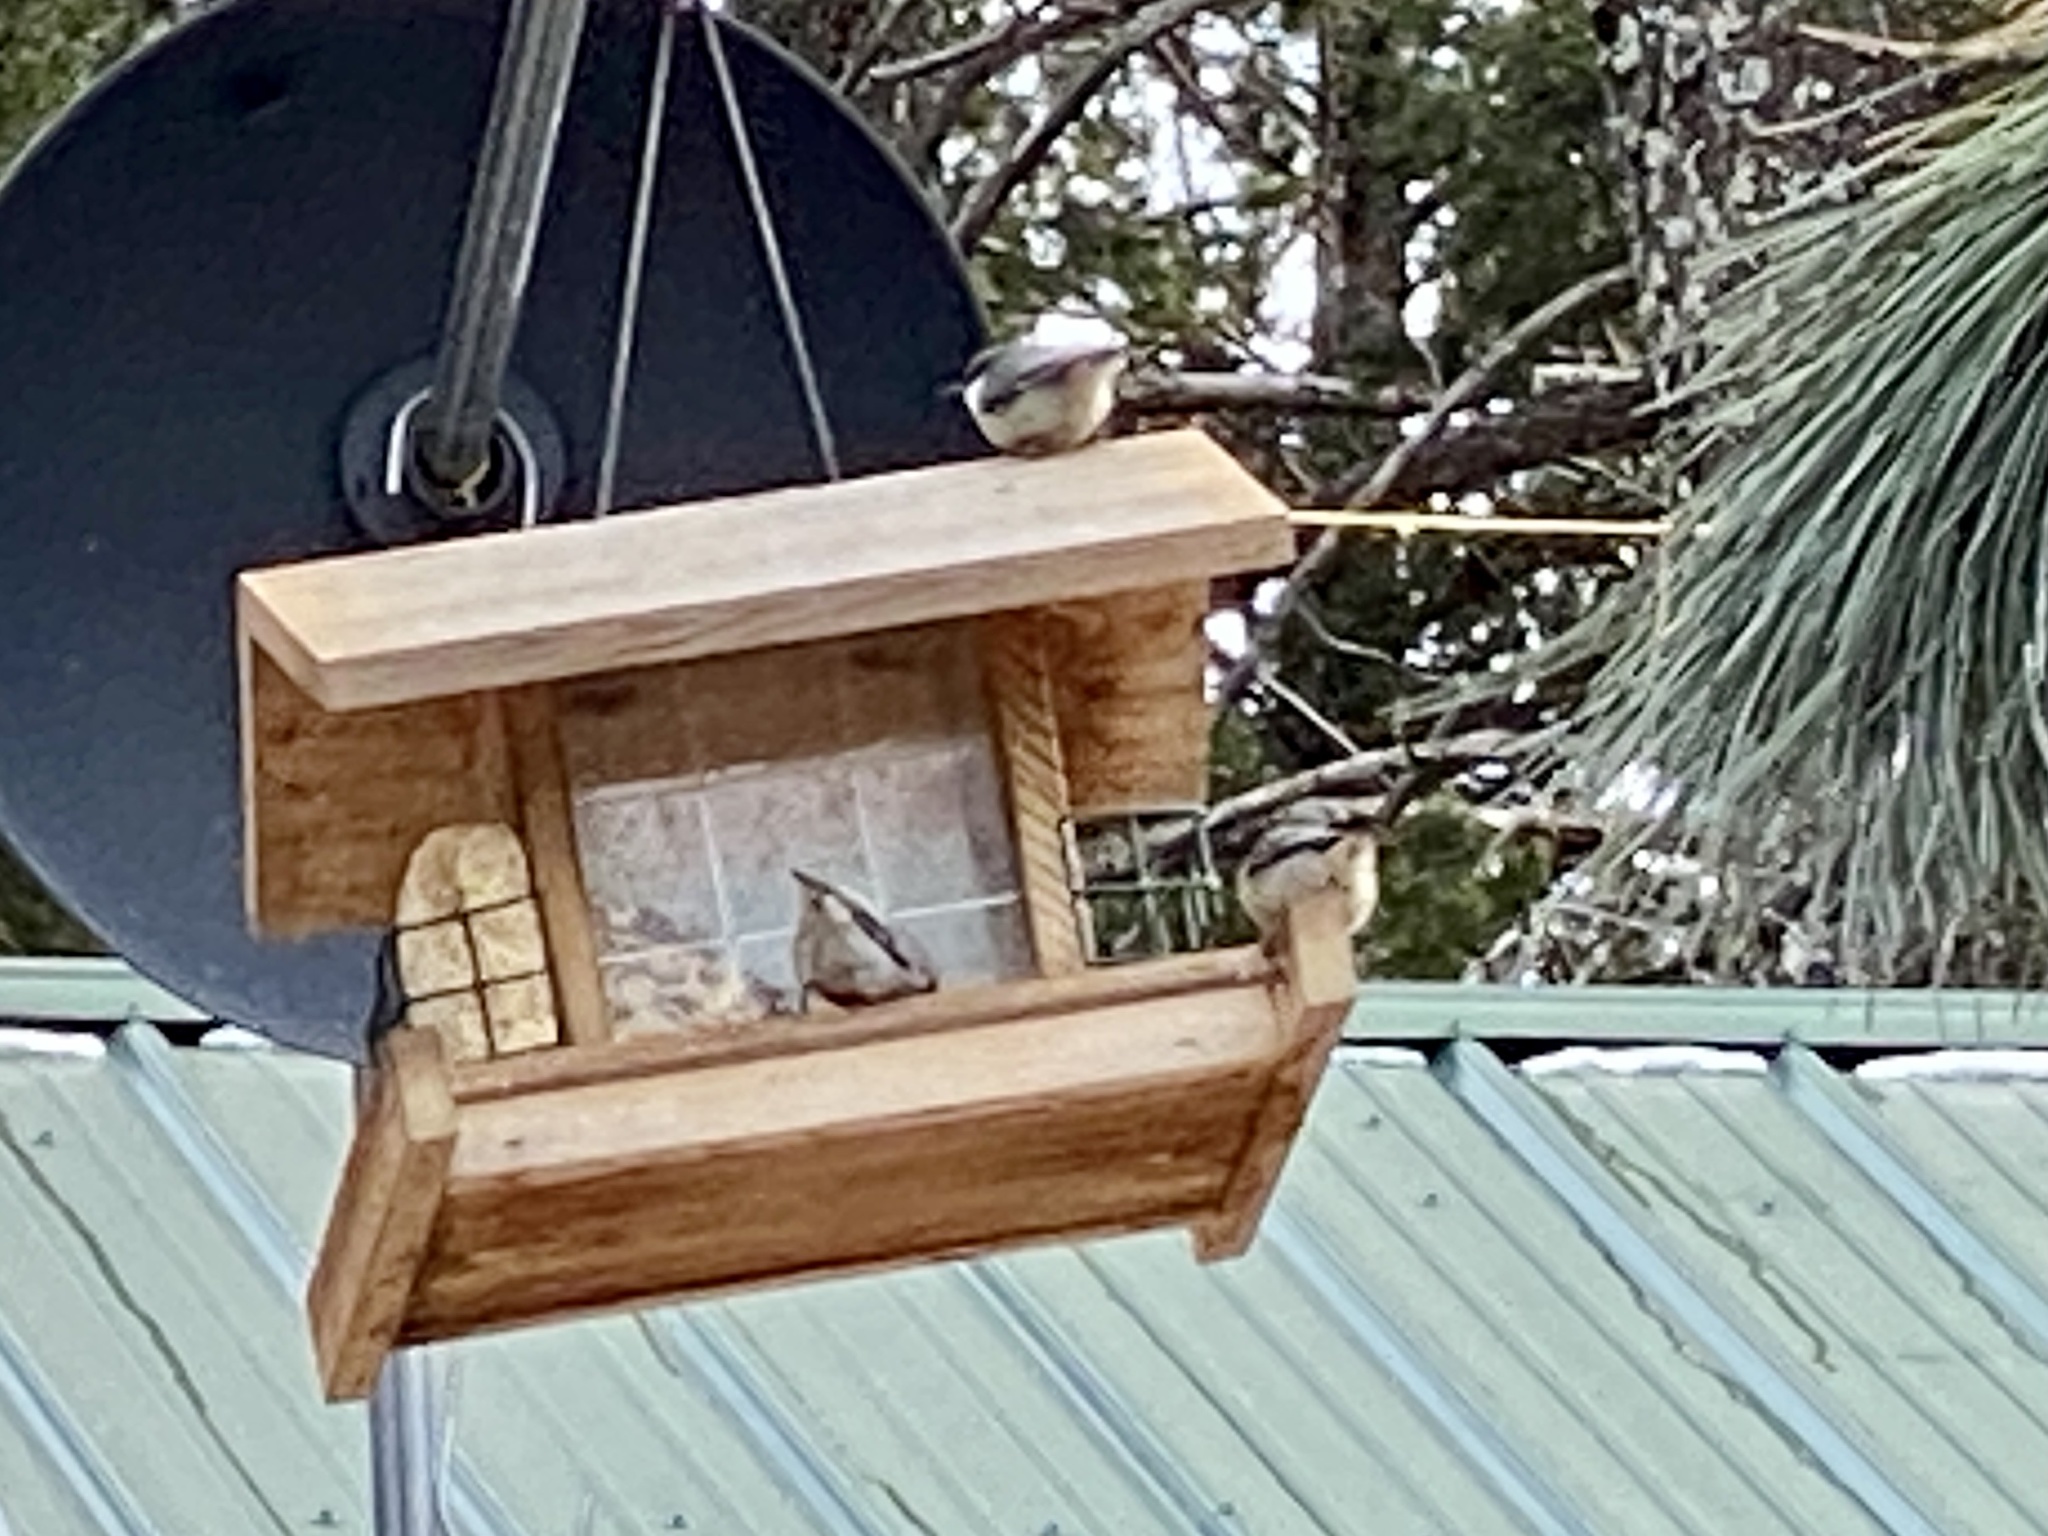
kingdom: Animalia
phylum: Chordata
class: Aves
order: Passeriformes
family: Sittidae
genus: Sitta
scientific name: Sitta pygmaea
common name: Pygmy nuthatch
